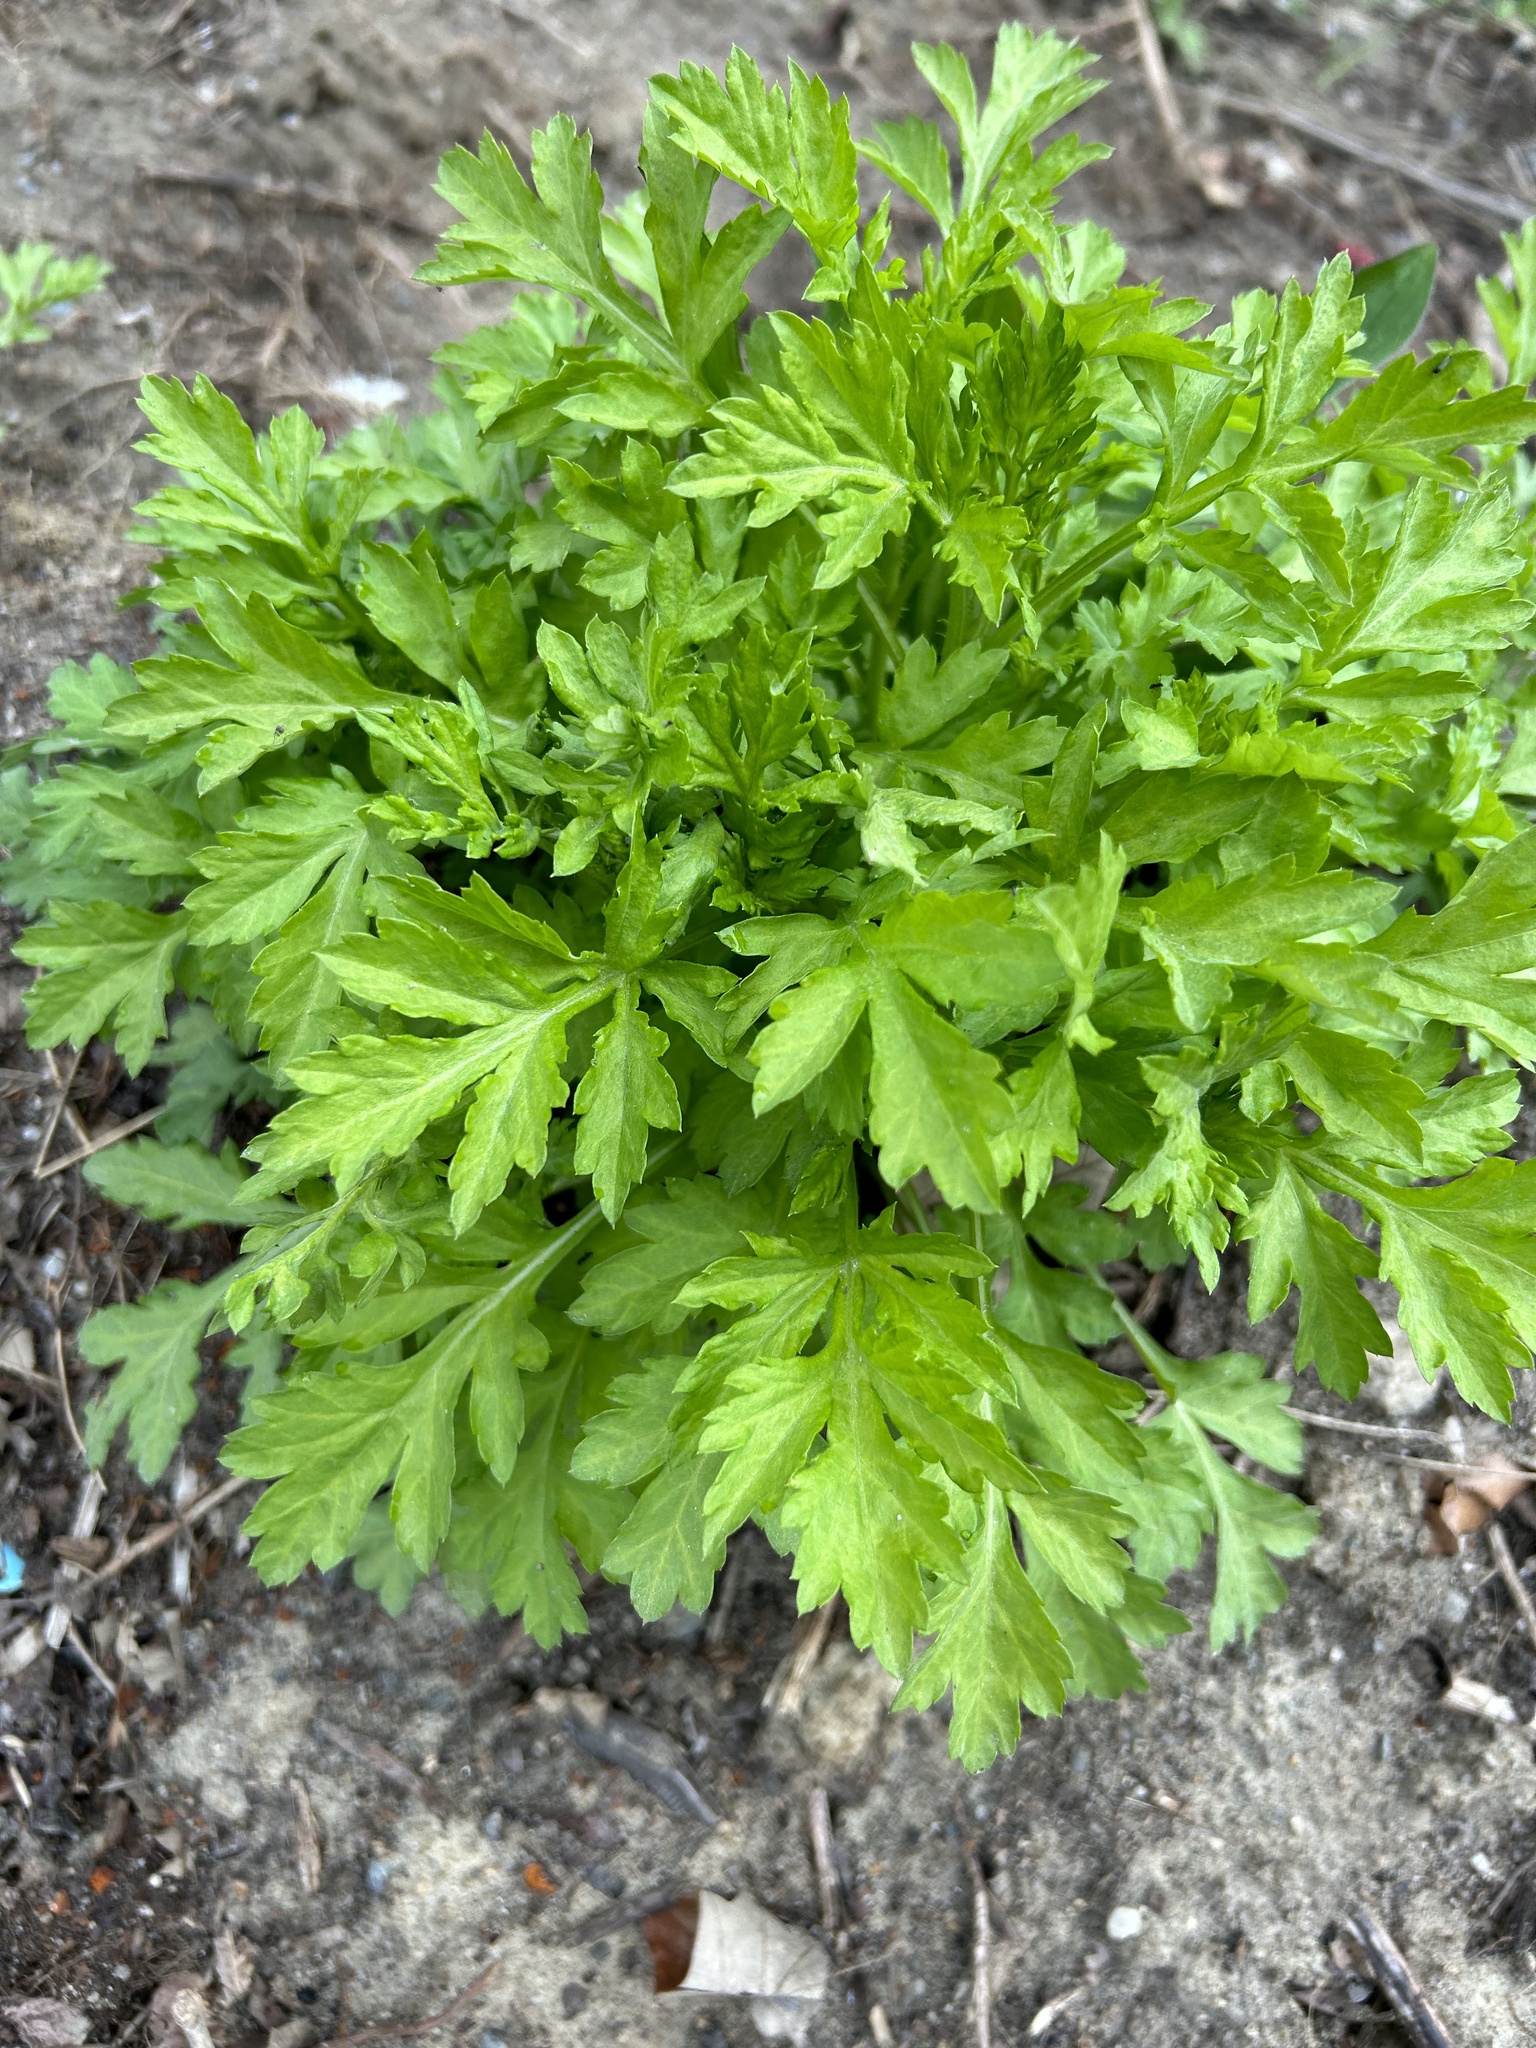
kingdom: Plantae
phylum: Tracheophyta
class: Magnoliopsida
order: Asterales
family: Asteraceae
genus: Artemisia
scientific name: Artemisia vulgaris
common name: Mugwort
